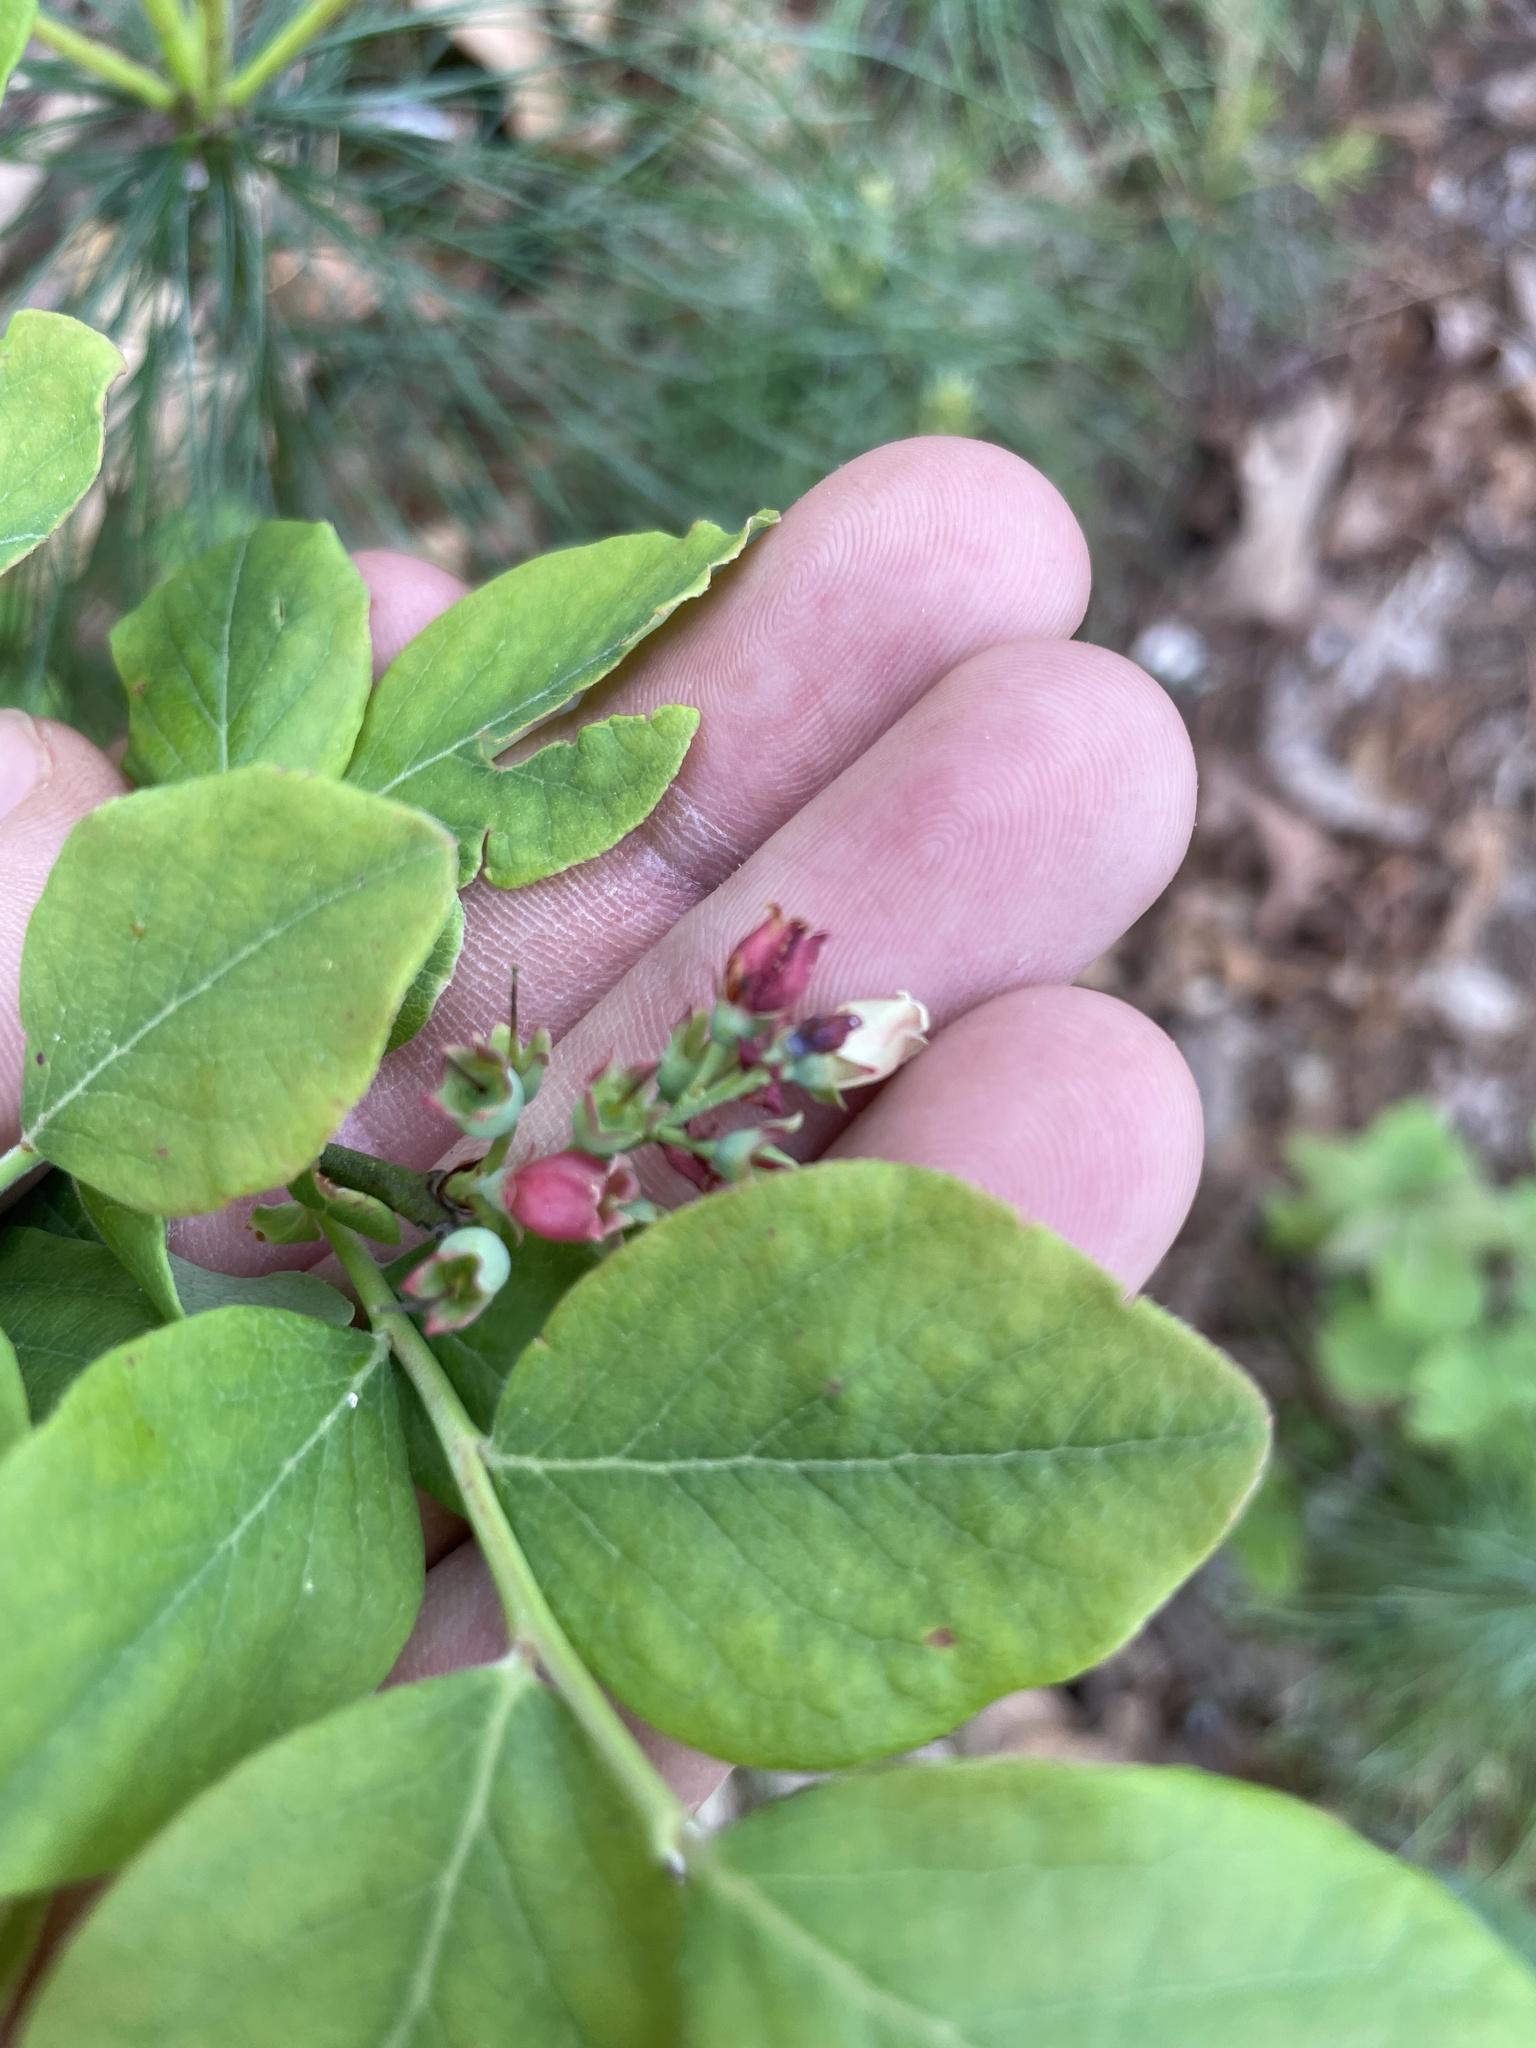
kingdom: Plantae
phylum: Tracheophyta
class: Magnoliopsida
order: Ericales
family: Ericaceae
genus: Vaccinium
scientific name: Vaccinium pallidum
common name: Blue ridge blueberry
